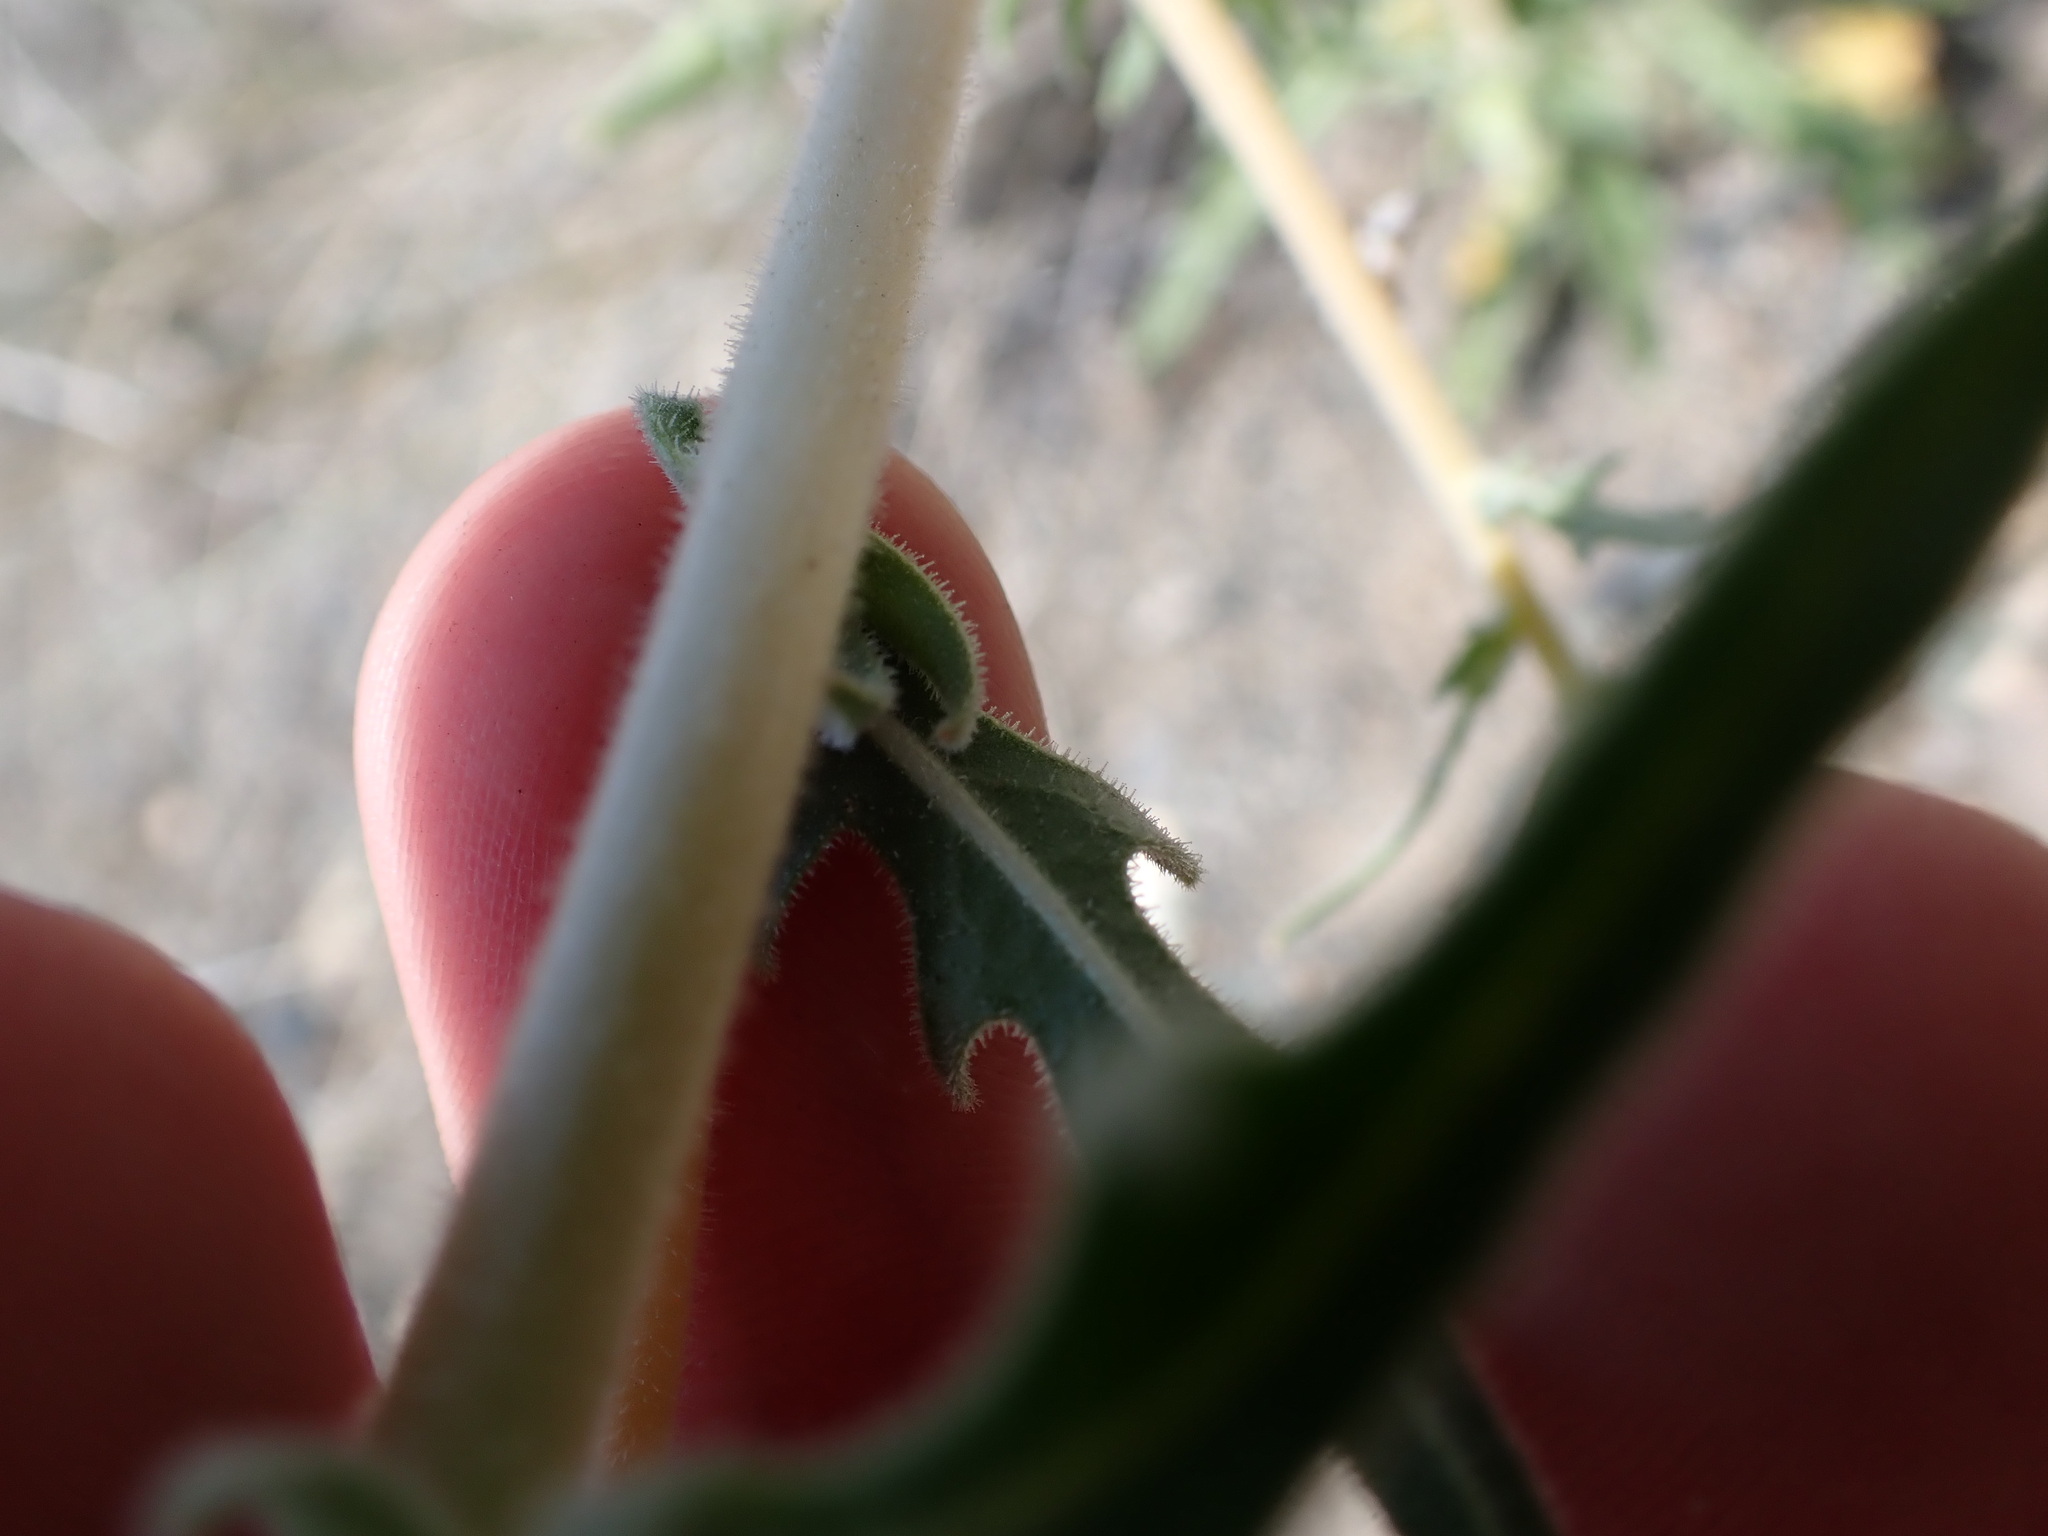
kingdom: Plantae
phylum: Tracheophyta
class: Magnoliopsida
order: Cornales
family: Loasaceae
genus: Mentzelia
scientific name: Mentzelia laevicaulis
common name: Smooth-stem blazingstar
